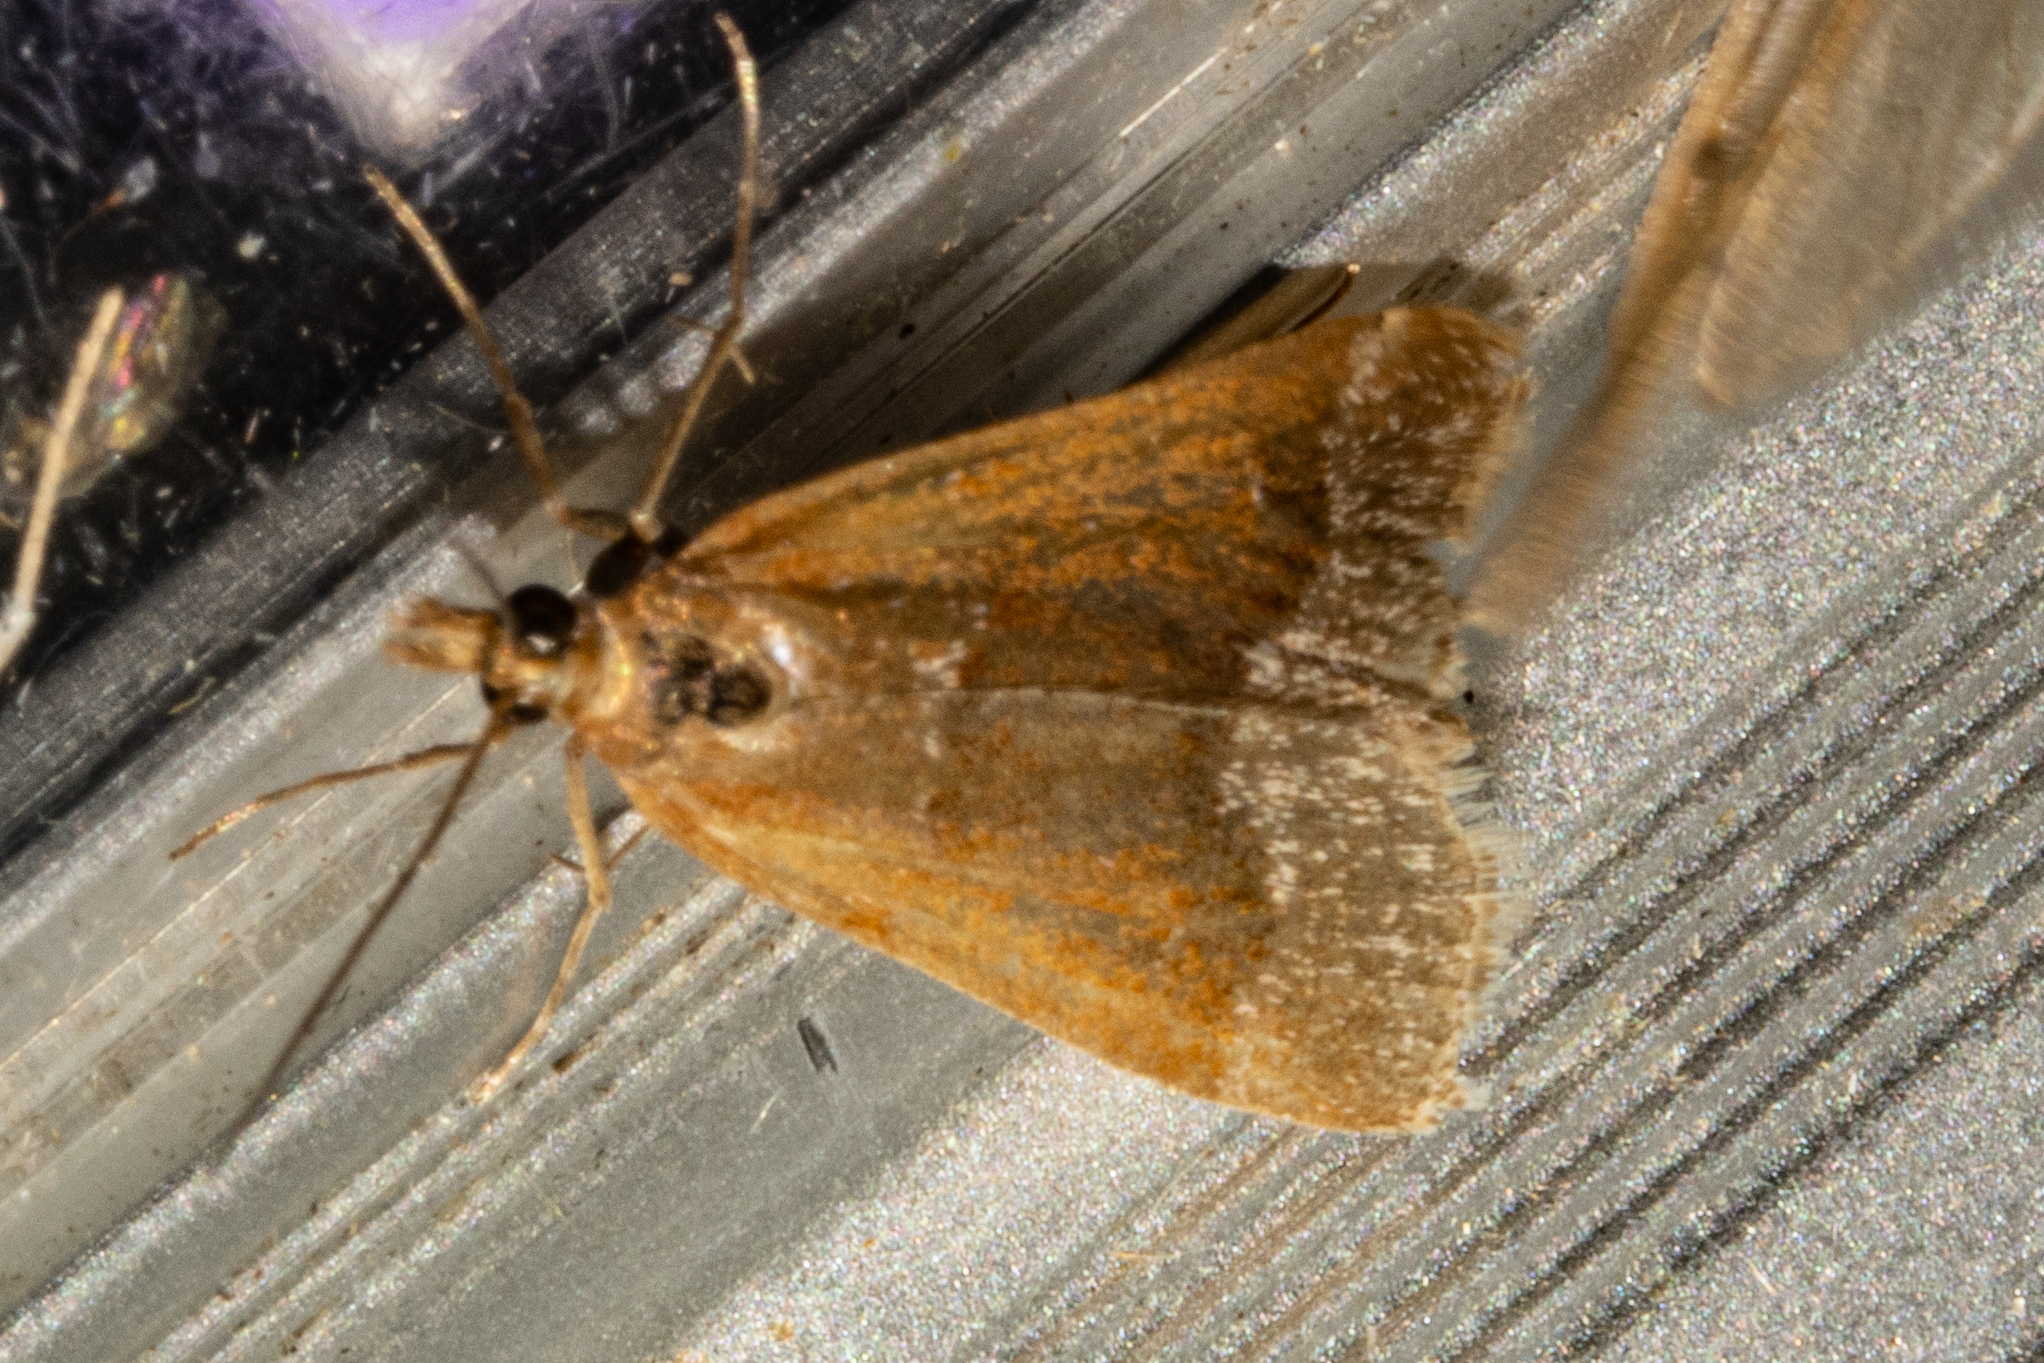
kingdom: Animalia
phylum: Arthropoda
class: Insecta
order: Lepidoptera
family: Crambidae
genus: Eudonia
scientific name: Eudonia feredayi
